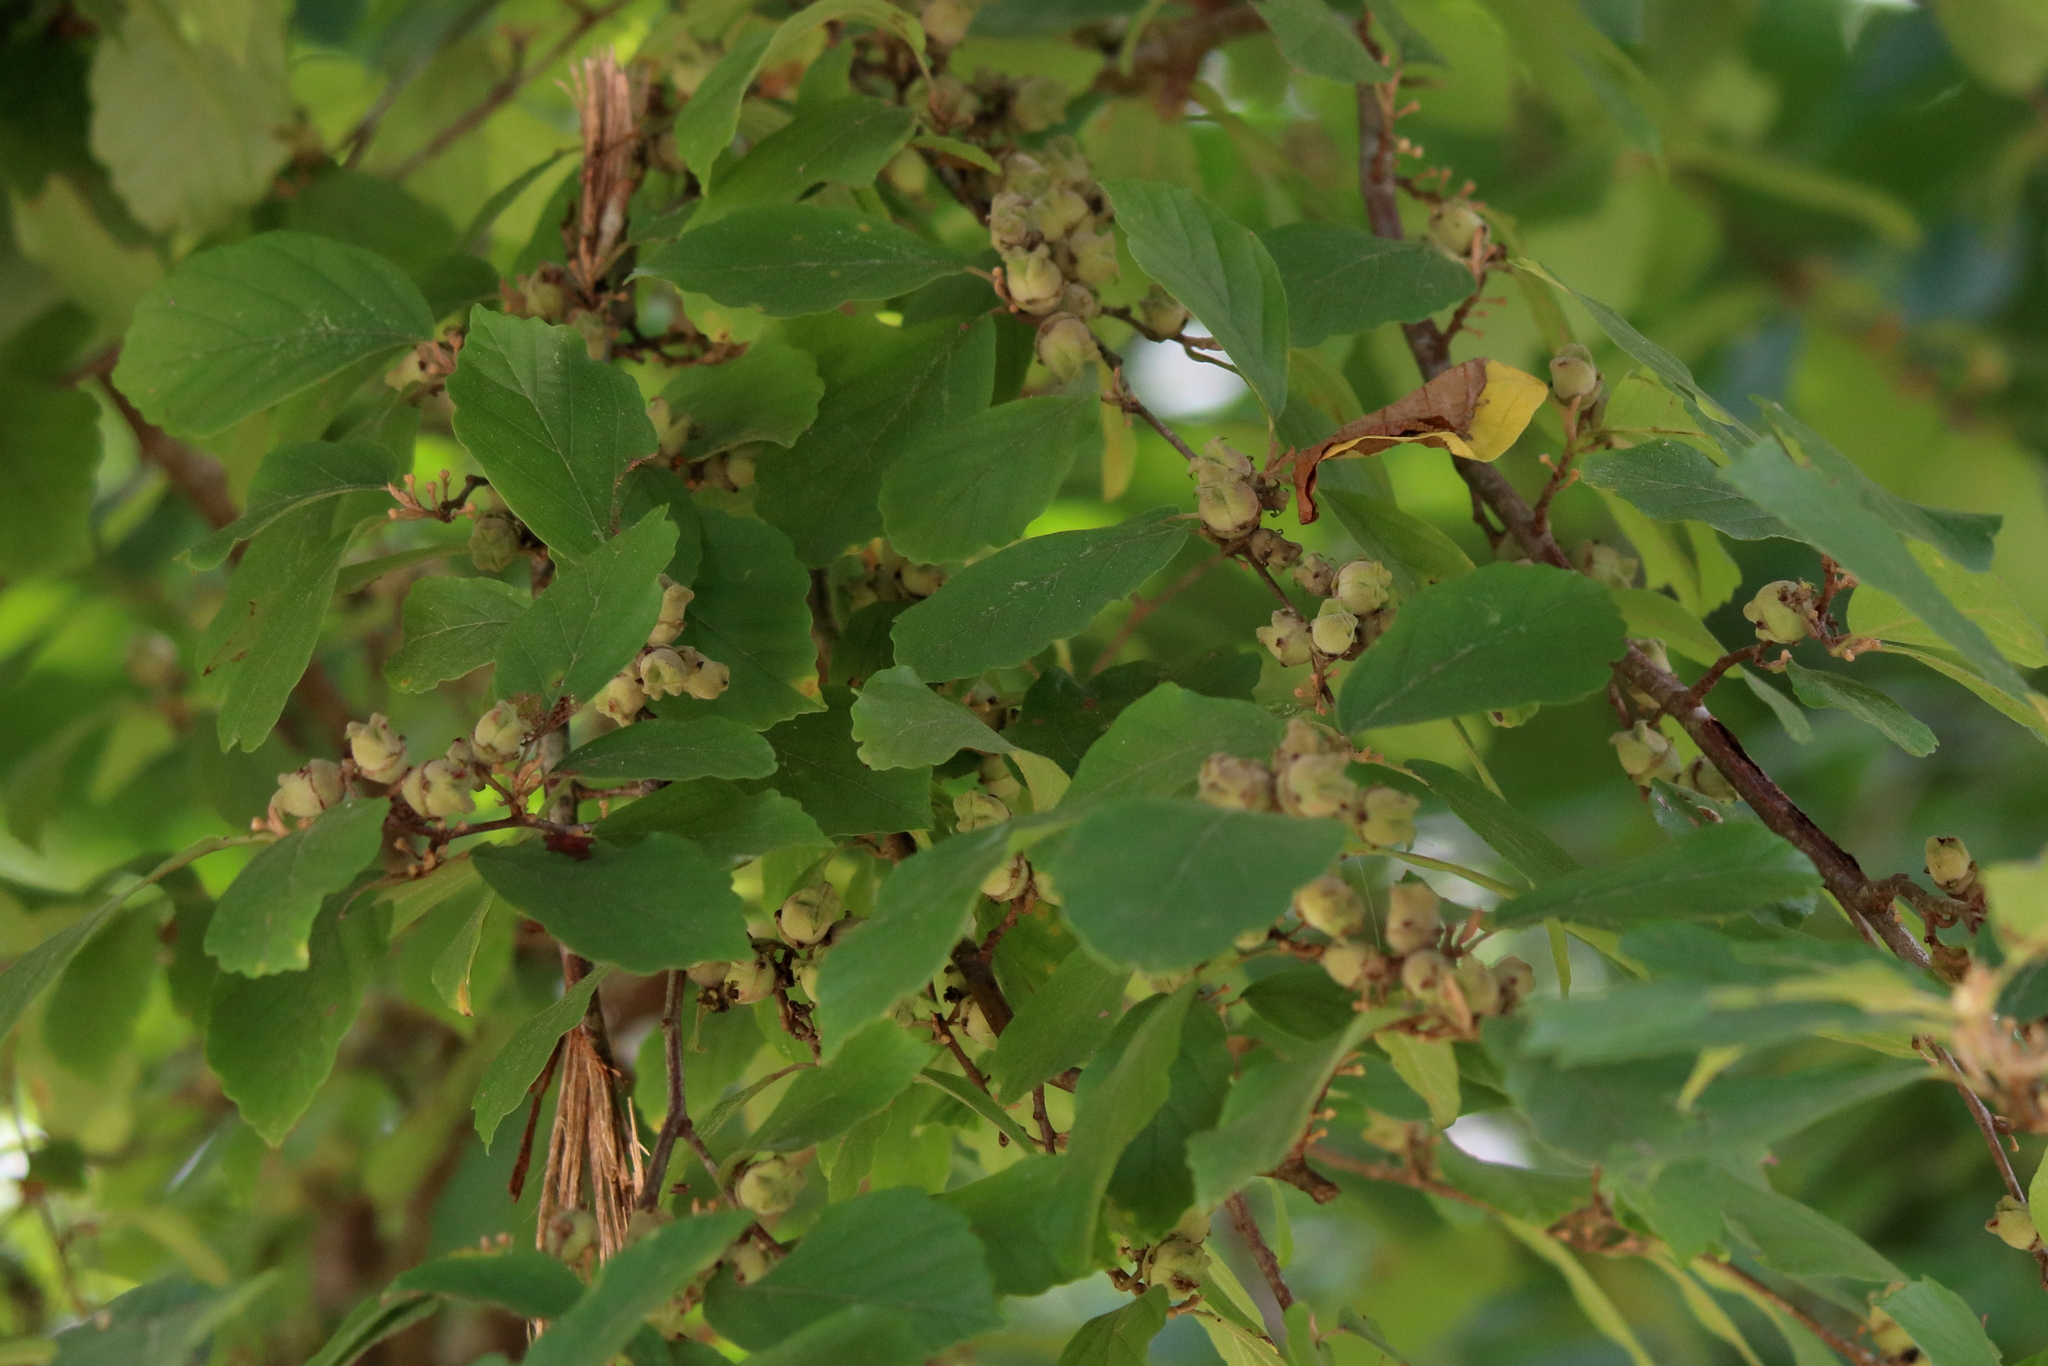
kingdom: Plantae
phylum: Tracheophyta
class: Magnoliopsida
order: Saxifragales
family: Hamamelidaceae
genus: Hamamelis
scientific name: Hamamelis virginiana
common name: Witch-hazel
